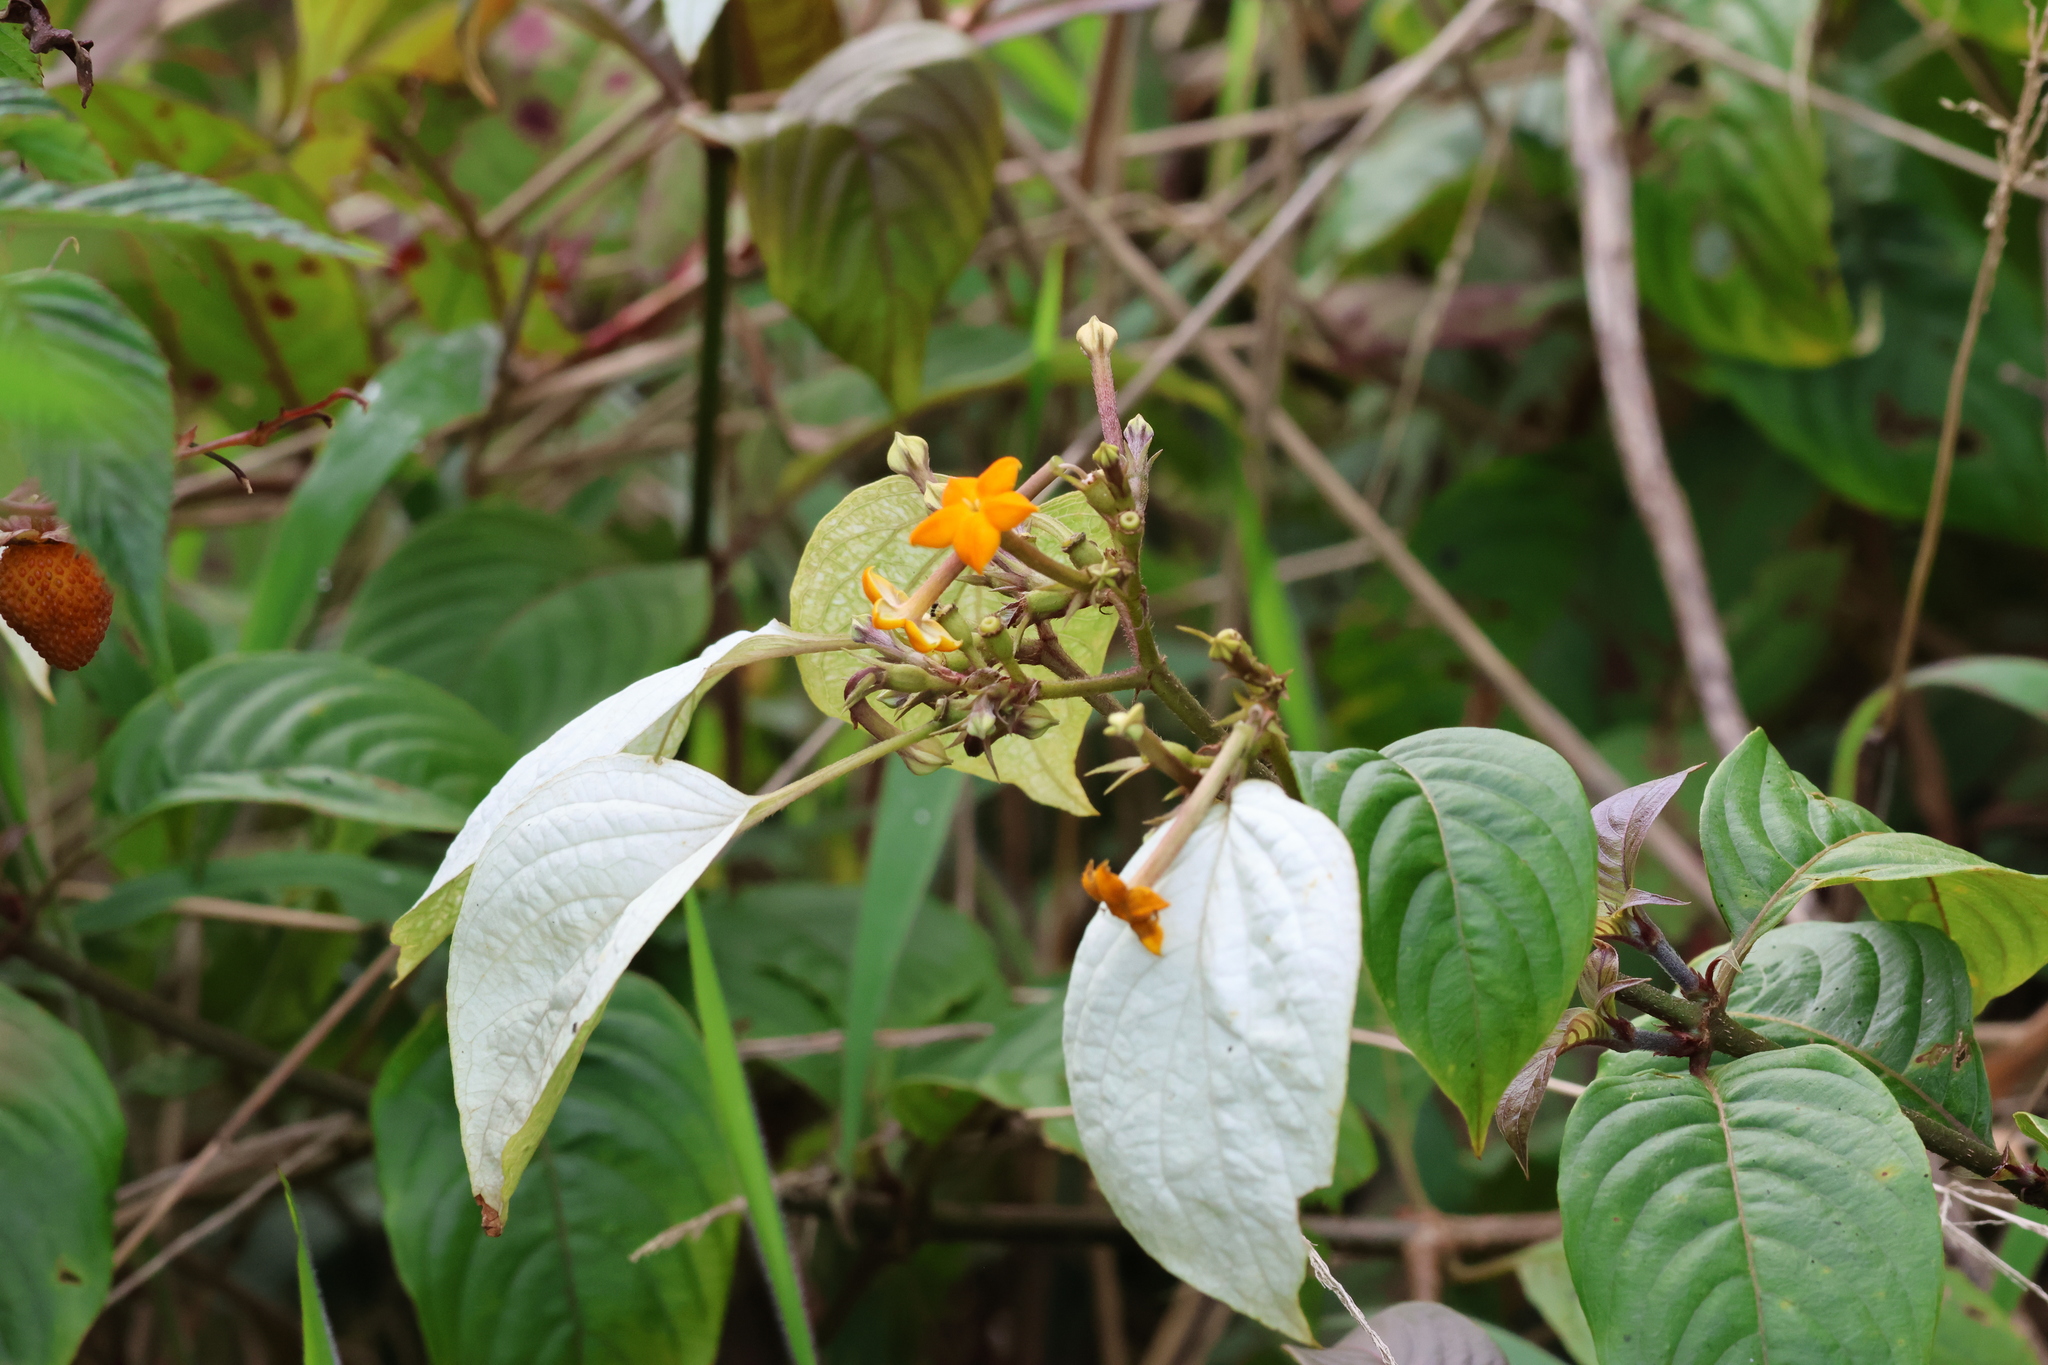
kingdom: Plantae
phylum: Tracheophyta
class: Magnoliopsida
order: Gentianales
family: Rubiaceae
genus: Mussaenda
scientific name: Mussaenda frondosa
